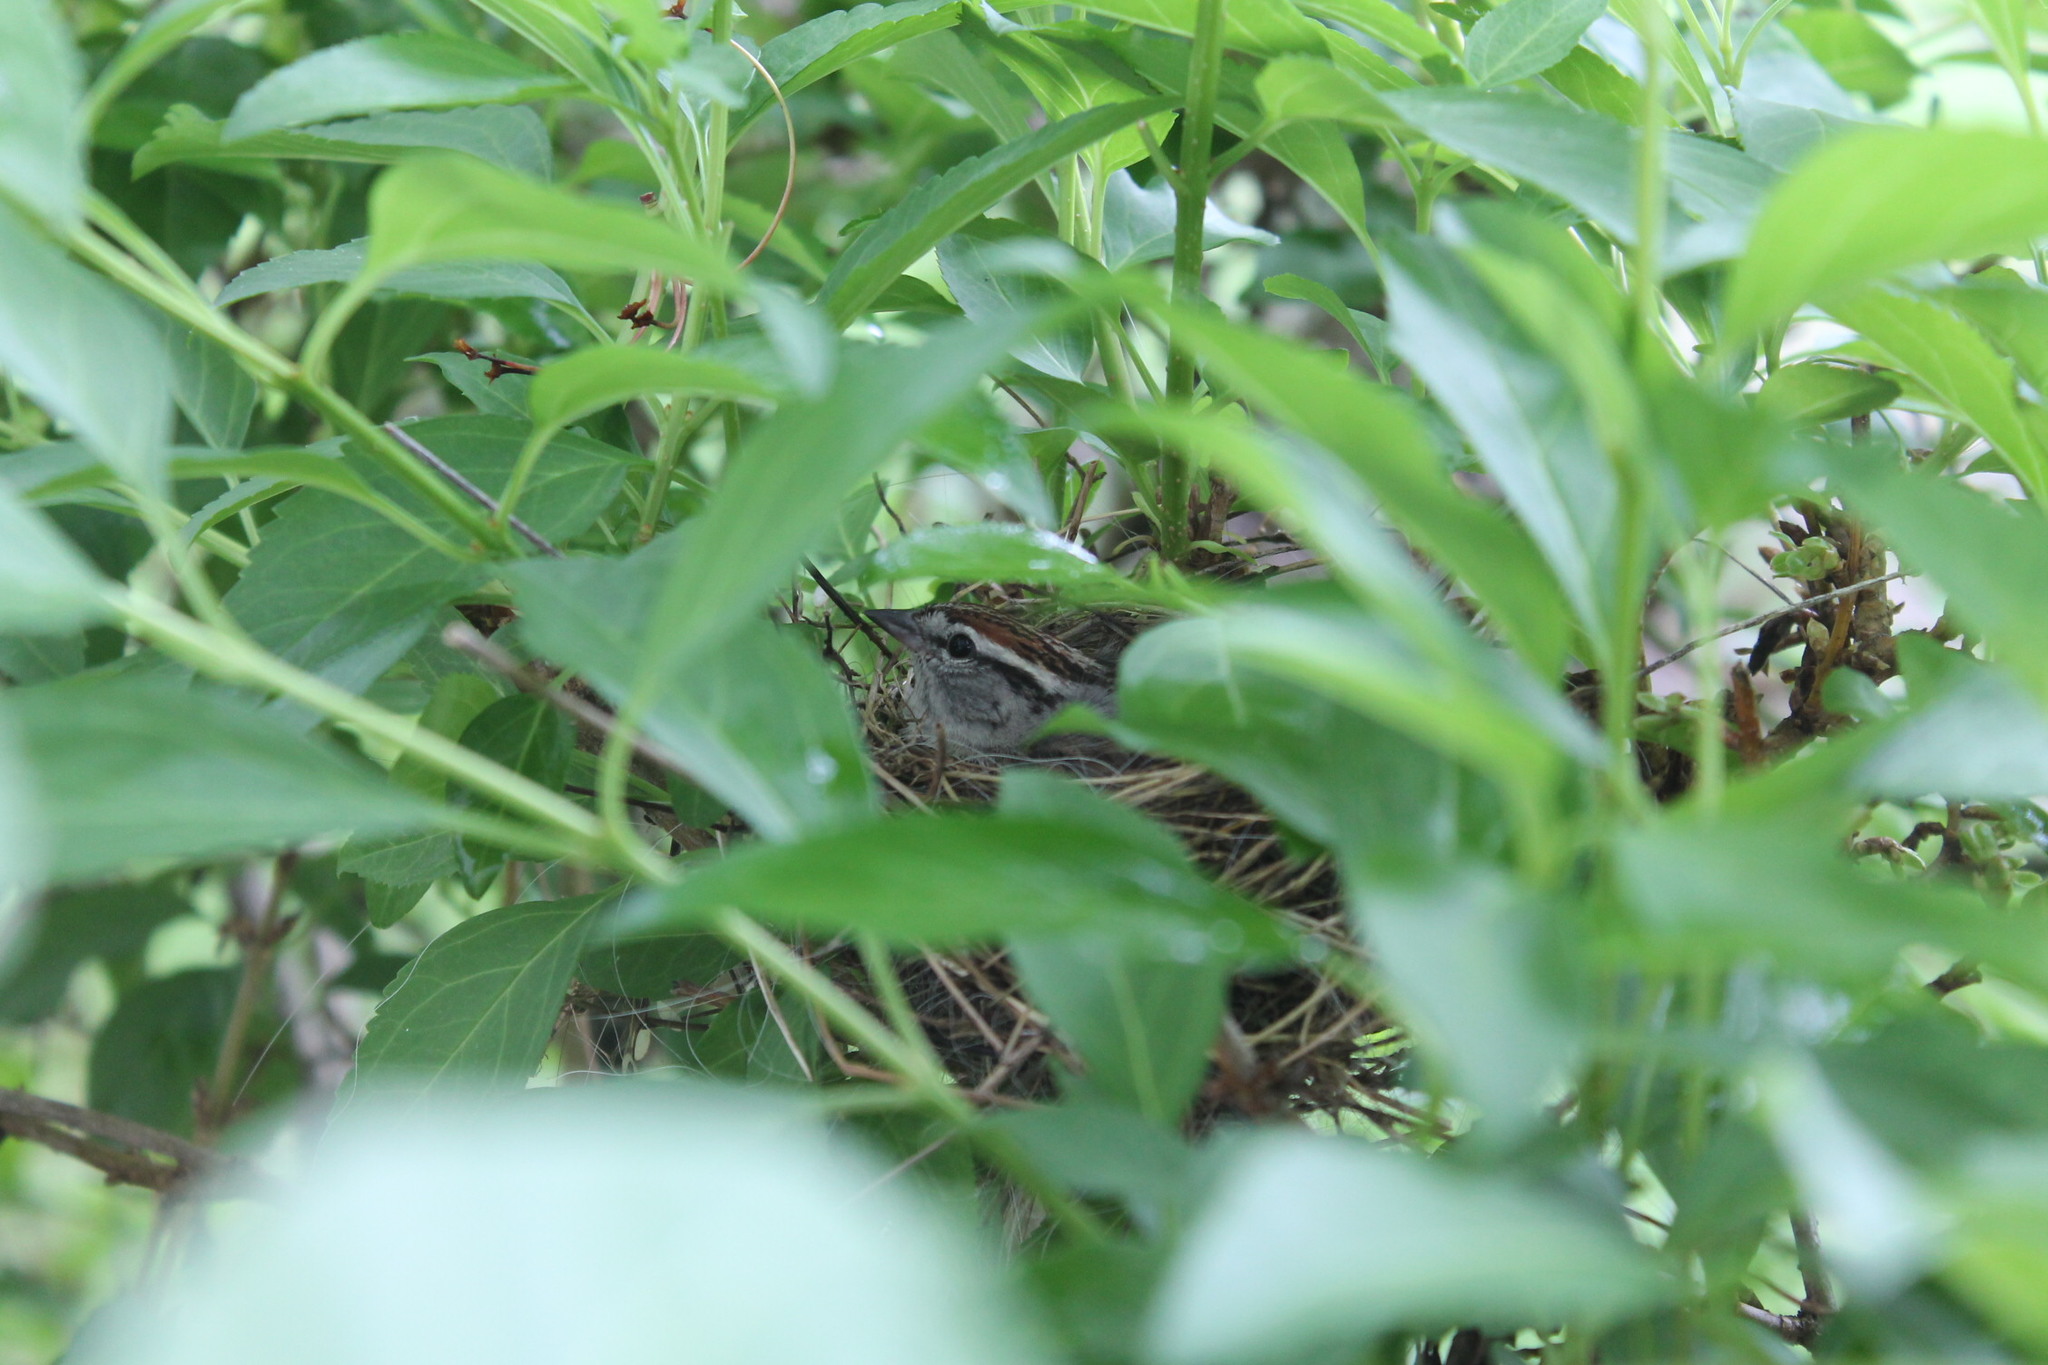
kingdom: Animalia
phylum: Chordata
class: Aves
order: Passeriformes
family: Passerellidae
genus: Spizella
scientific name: Spizella passerina
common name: Chipping sparrow
